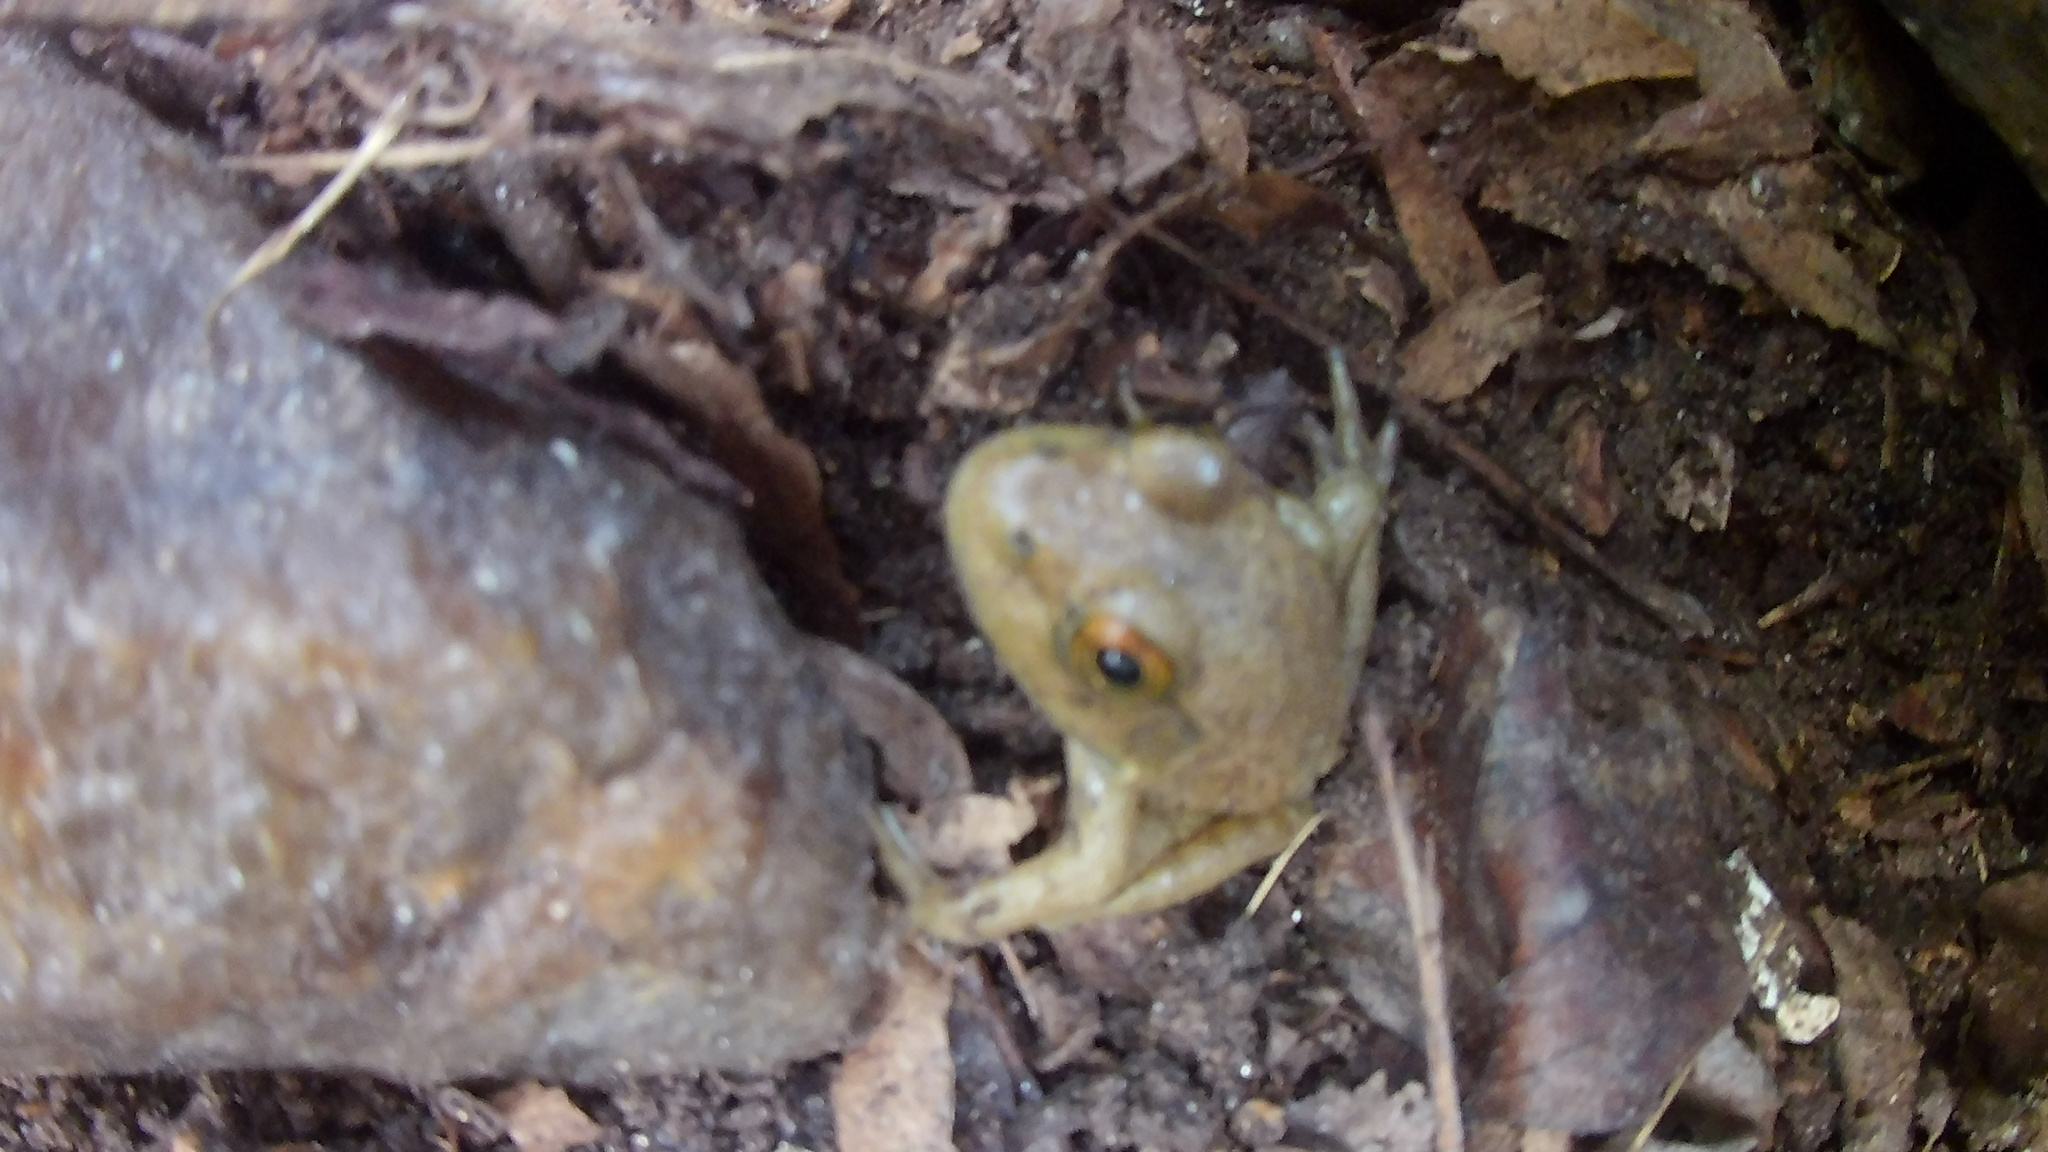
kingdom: Animalia
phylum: Chordata
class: Amphibia
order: Anura
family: Ranidae
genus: Lithobates
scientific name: Lithobates catesbeianus
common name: American bullfrog
